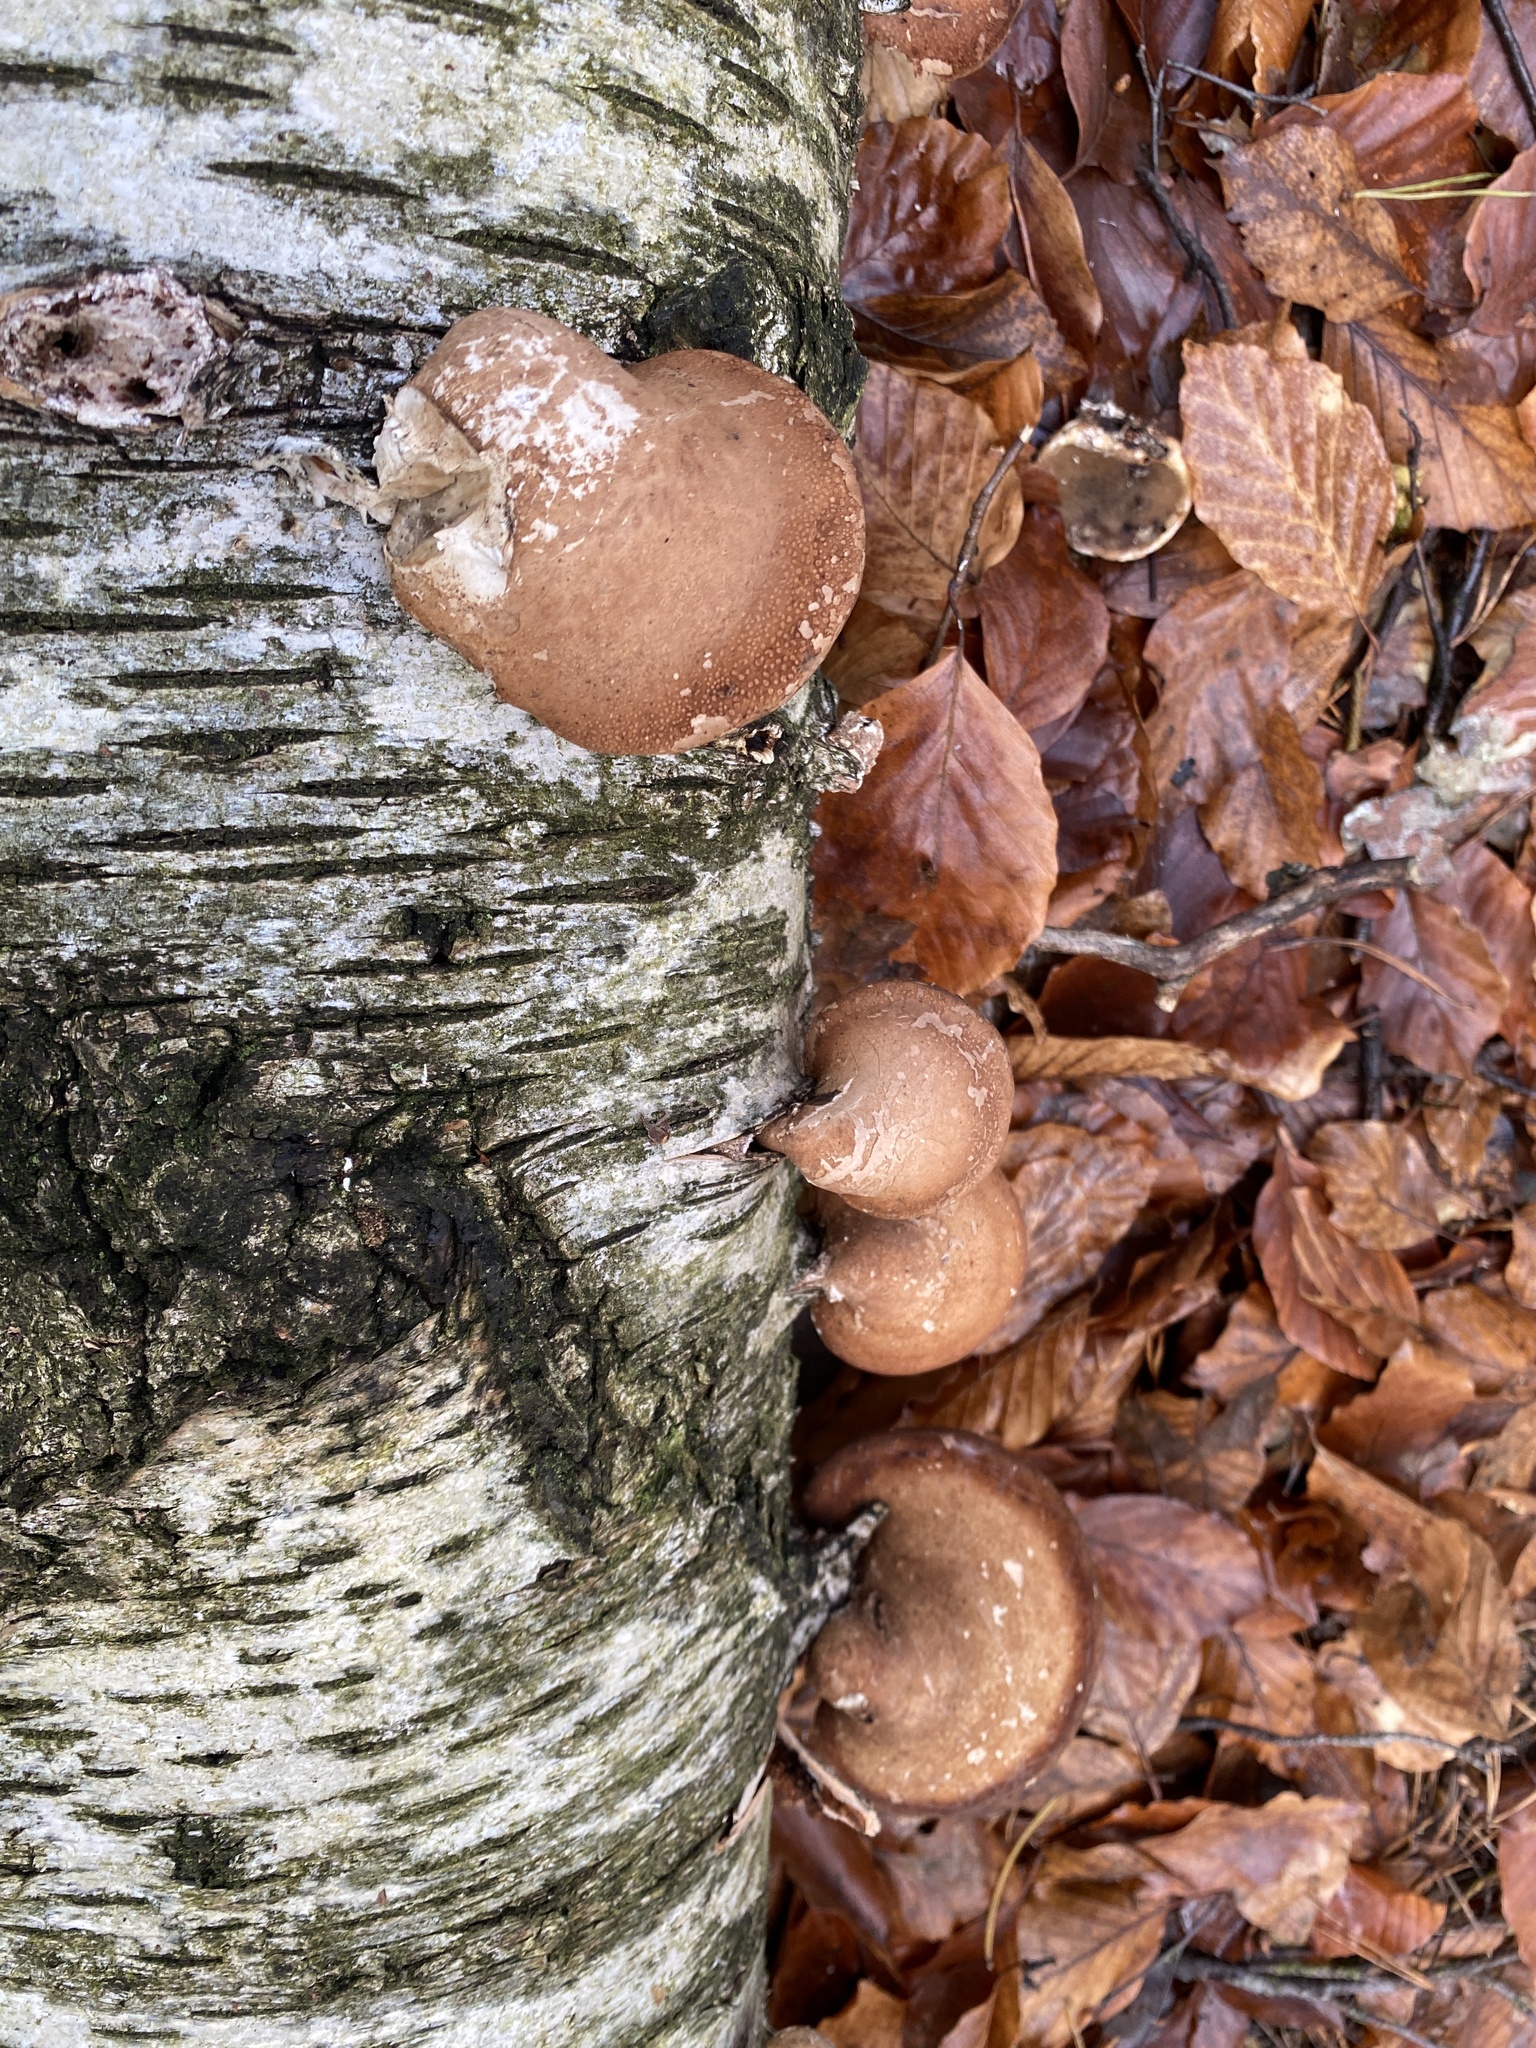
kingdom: Fungi
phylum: Basidiomycota
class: Agaricomycetes
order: Polyporales
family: Fomitopsidaceae
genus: Fomitopsis
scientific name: Fomitopsis betulina
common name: Birch polypore
